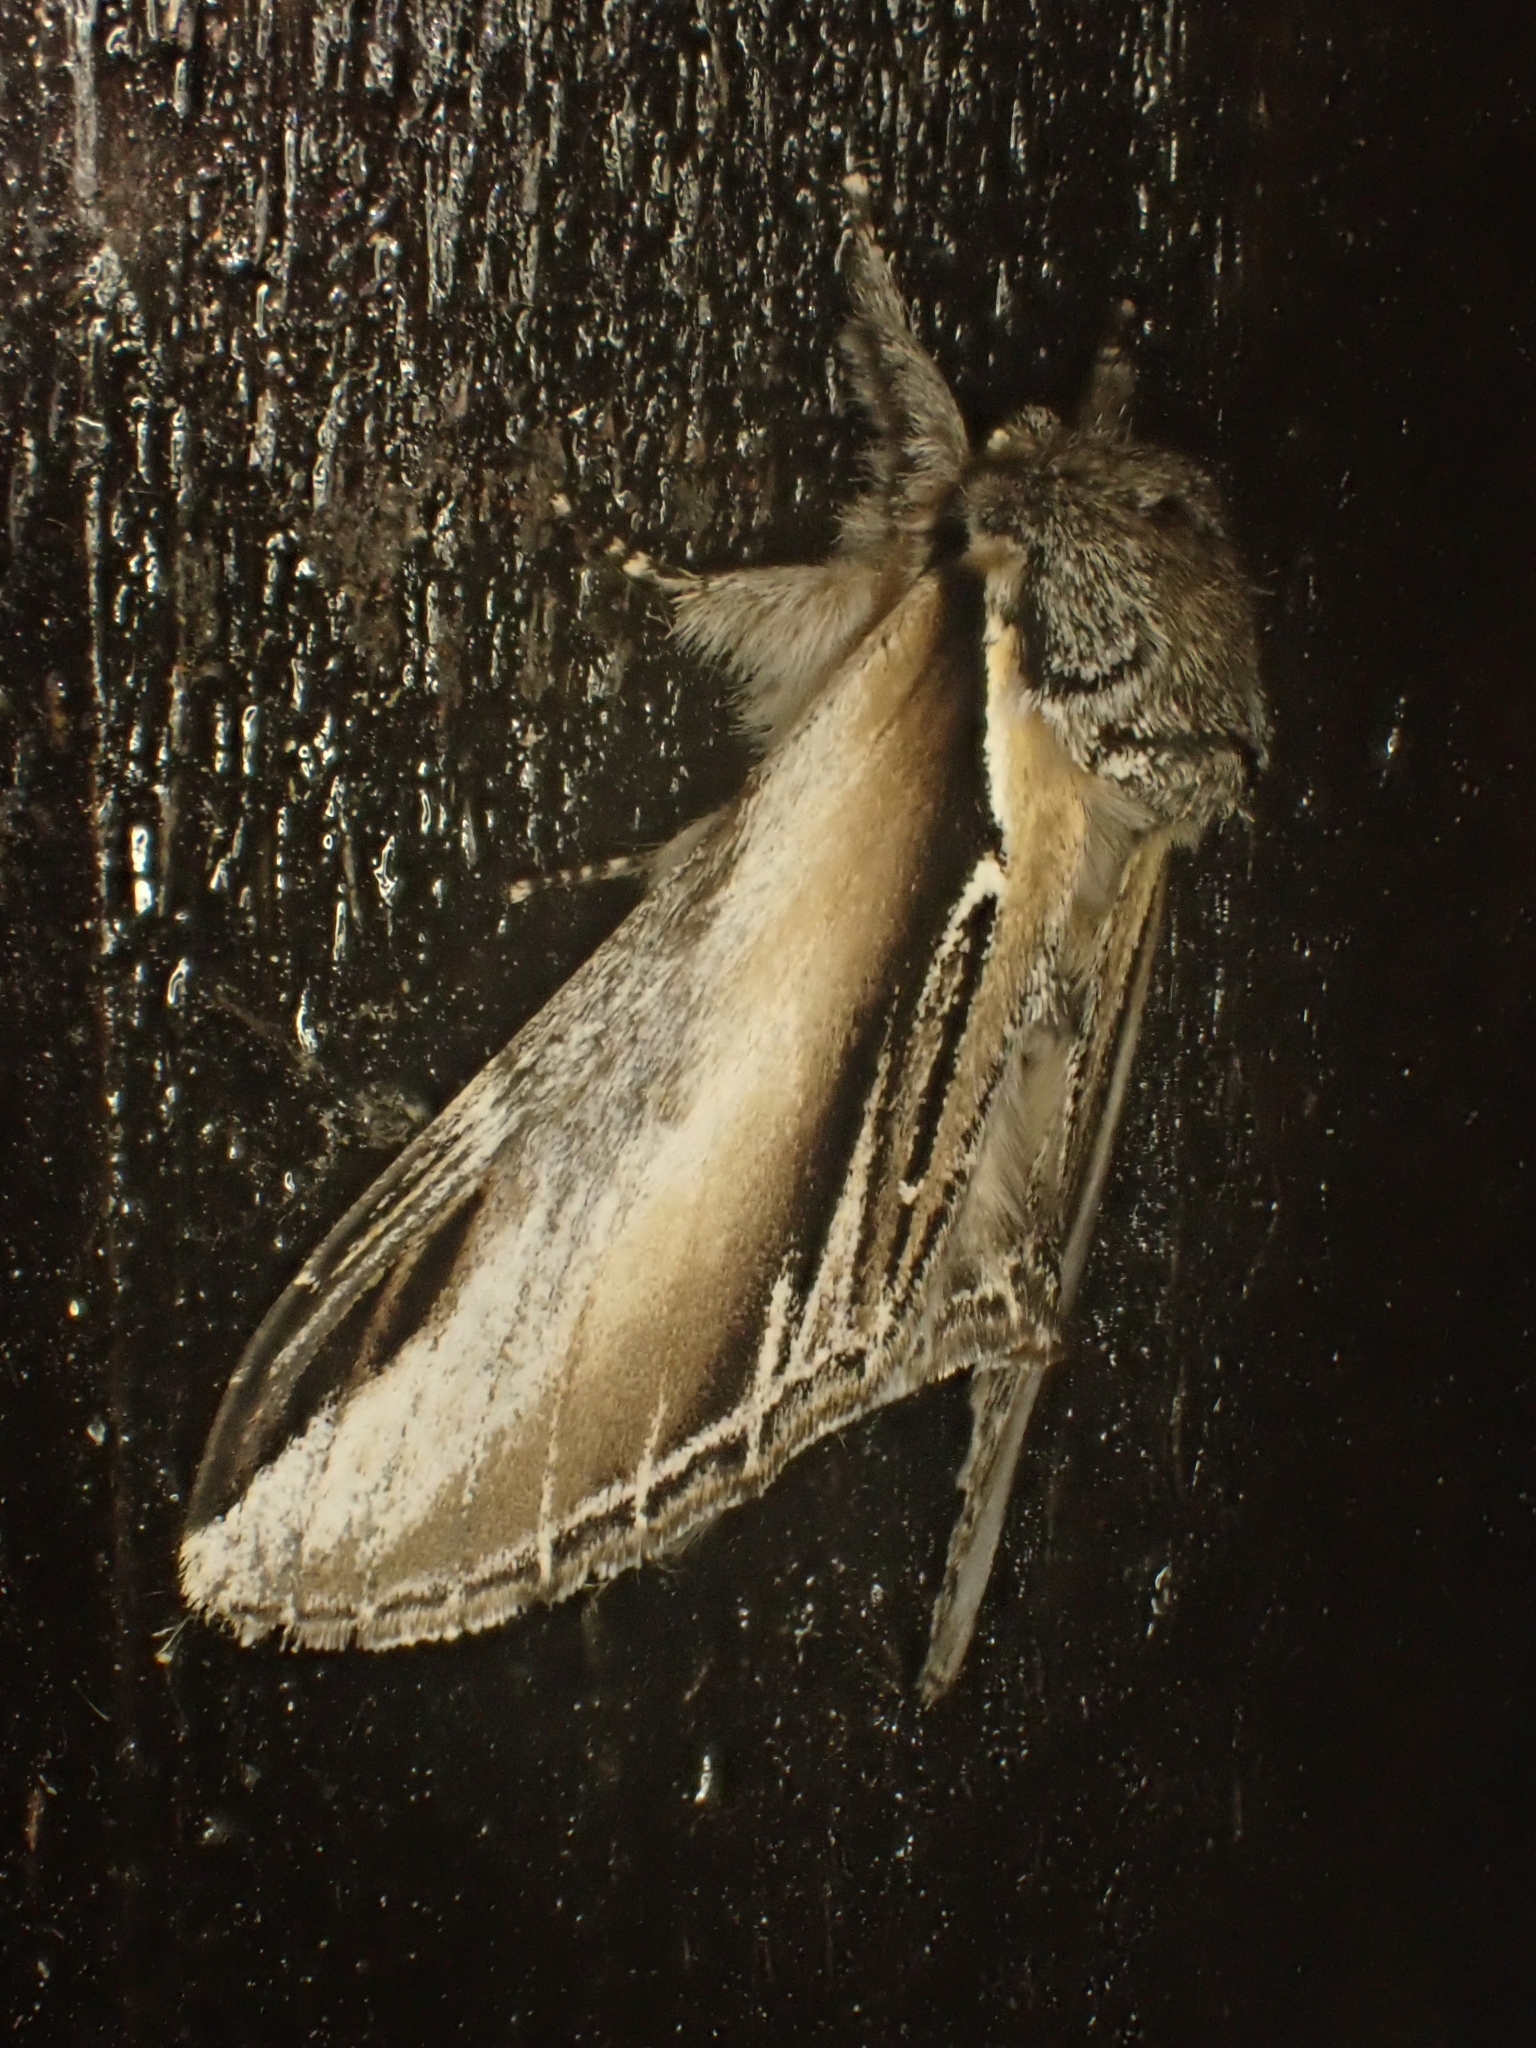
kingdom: Animalia
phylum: Arthropoda
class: Insecta
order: Lepidoptera
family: Notodontidae
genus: Pheosia
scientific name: Pheosia tremula
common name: Swallow prominent
